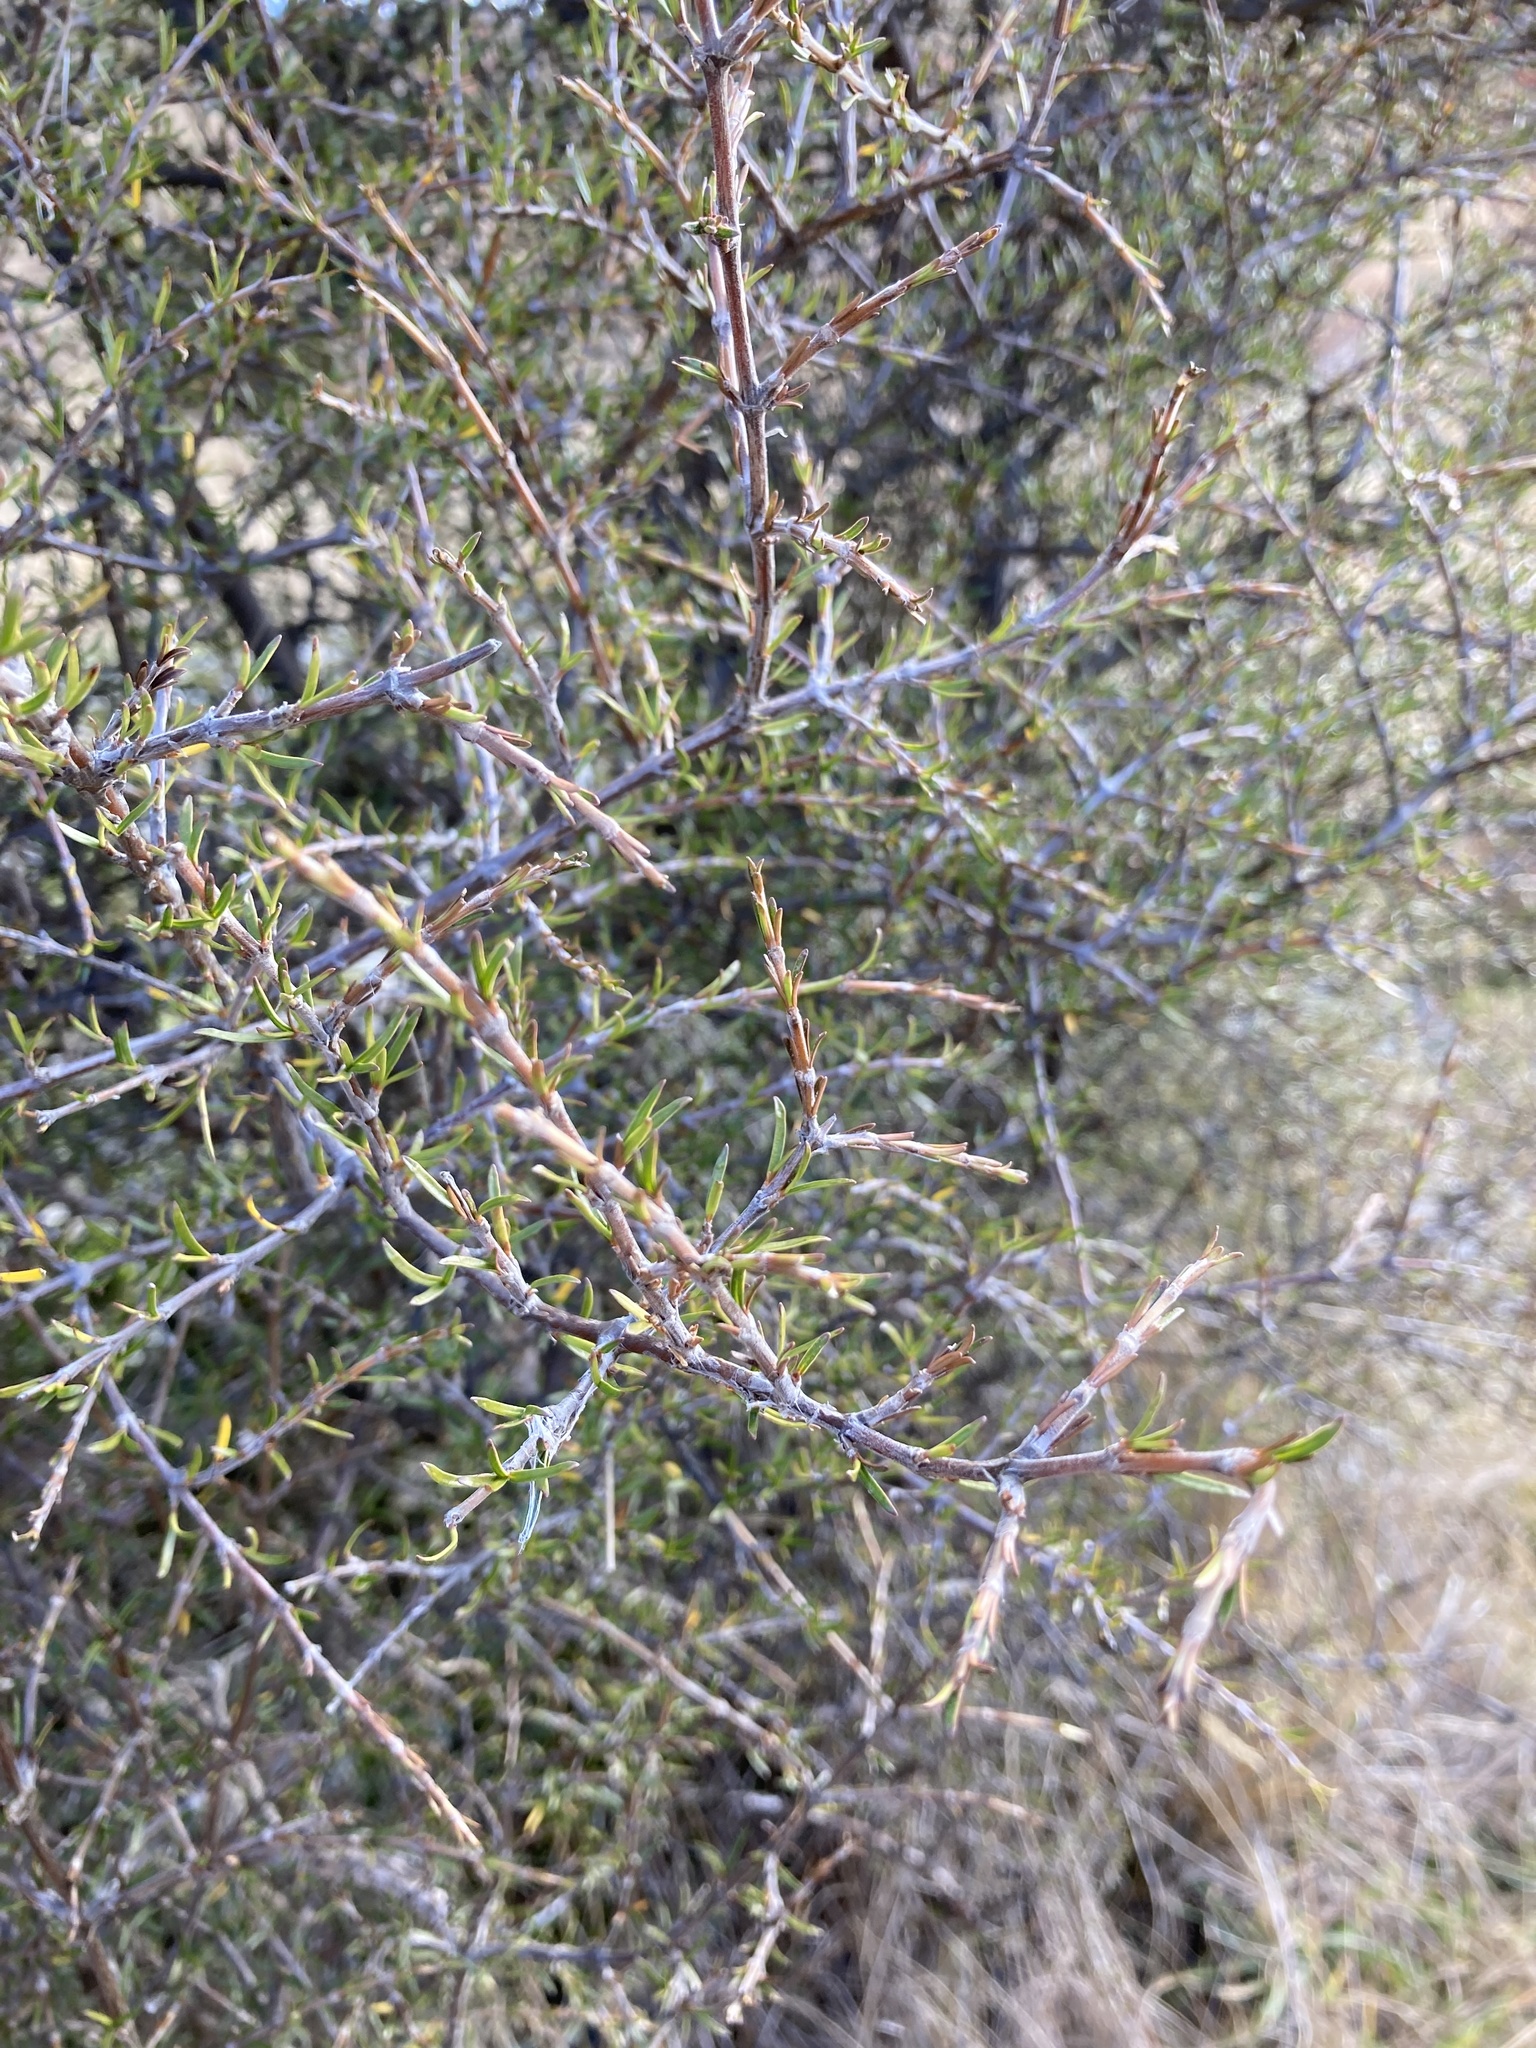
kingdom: Plantae
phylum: Tracheophyta
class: Magnoliopsida
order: Gentianales
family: Rubiaceae
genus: Coprosma
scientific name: Coprosma rugosa
